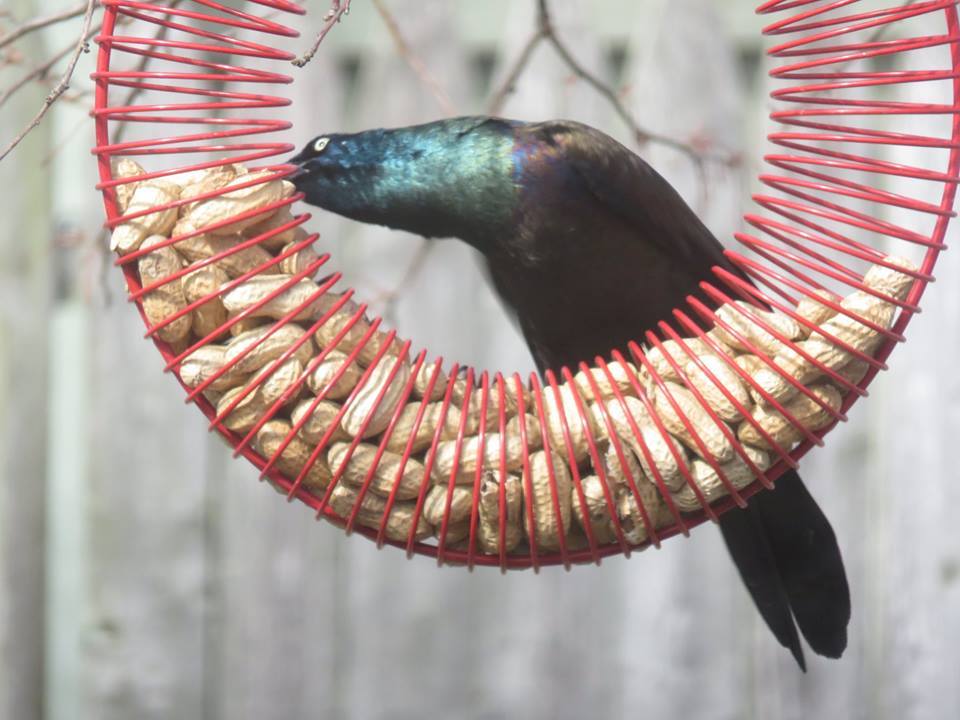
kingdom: Animalia
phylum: Chordata
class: Aves
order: Passeriformes
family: Icteridae
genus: Quiscalus
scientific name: Quiscalus quiscula
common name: Common grackle
